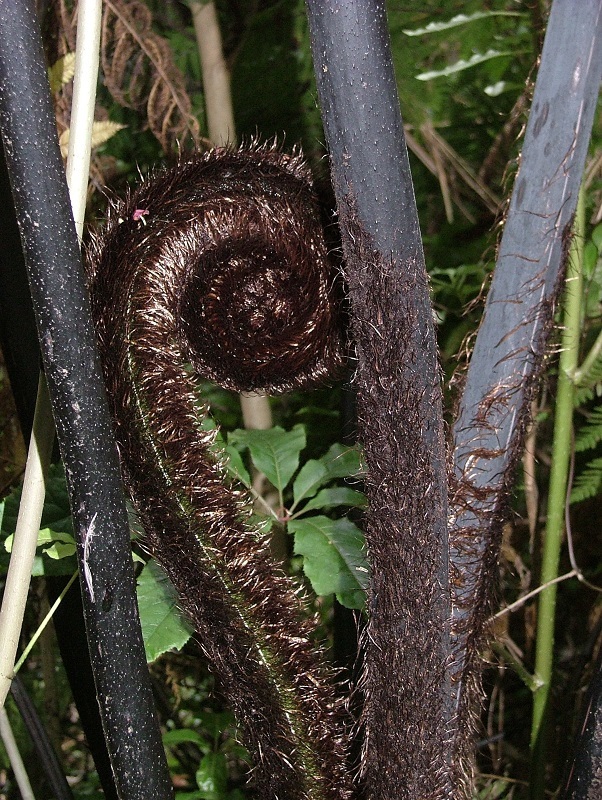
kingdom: Plantae
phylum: Tracheophyta
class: Polypodiopsida
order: Cyatheales
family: Cyatheaceae
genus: Sphaeropteris
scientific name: Sphaeropteris medullaris
